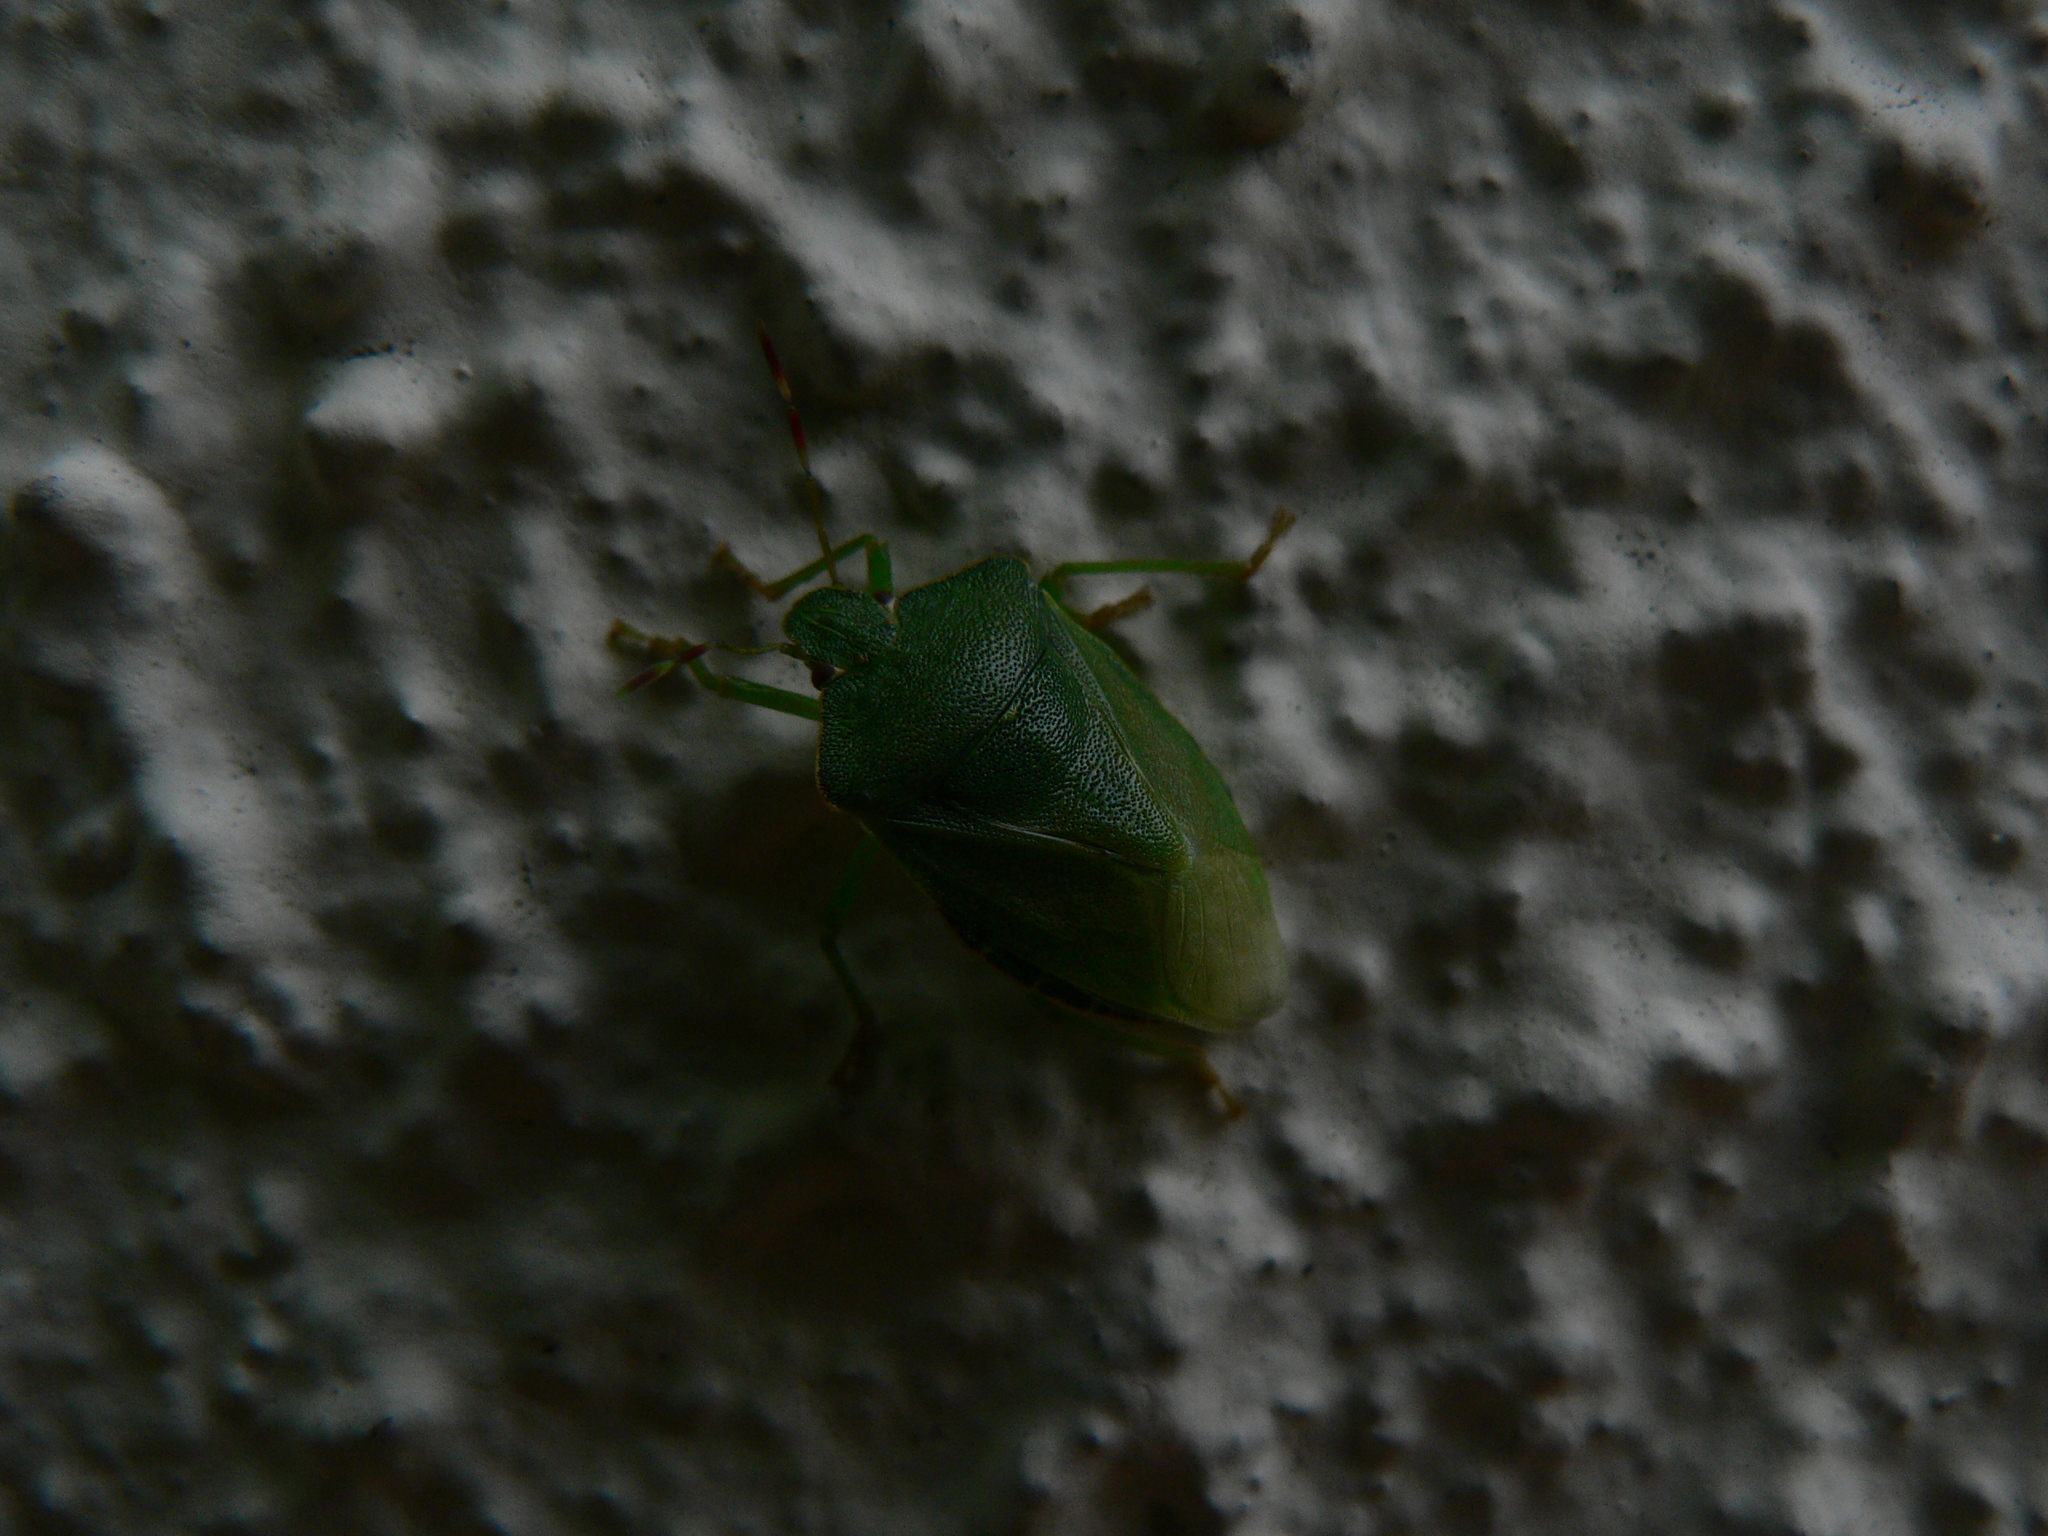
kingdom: Animalia
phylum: Arthropoda
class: Insecta
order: Hemiptera
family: Pentatomidae
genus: Palomena
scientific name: Palomena prasina
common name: Green shieldbug
